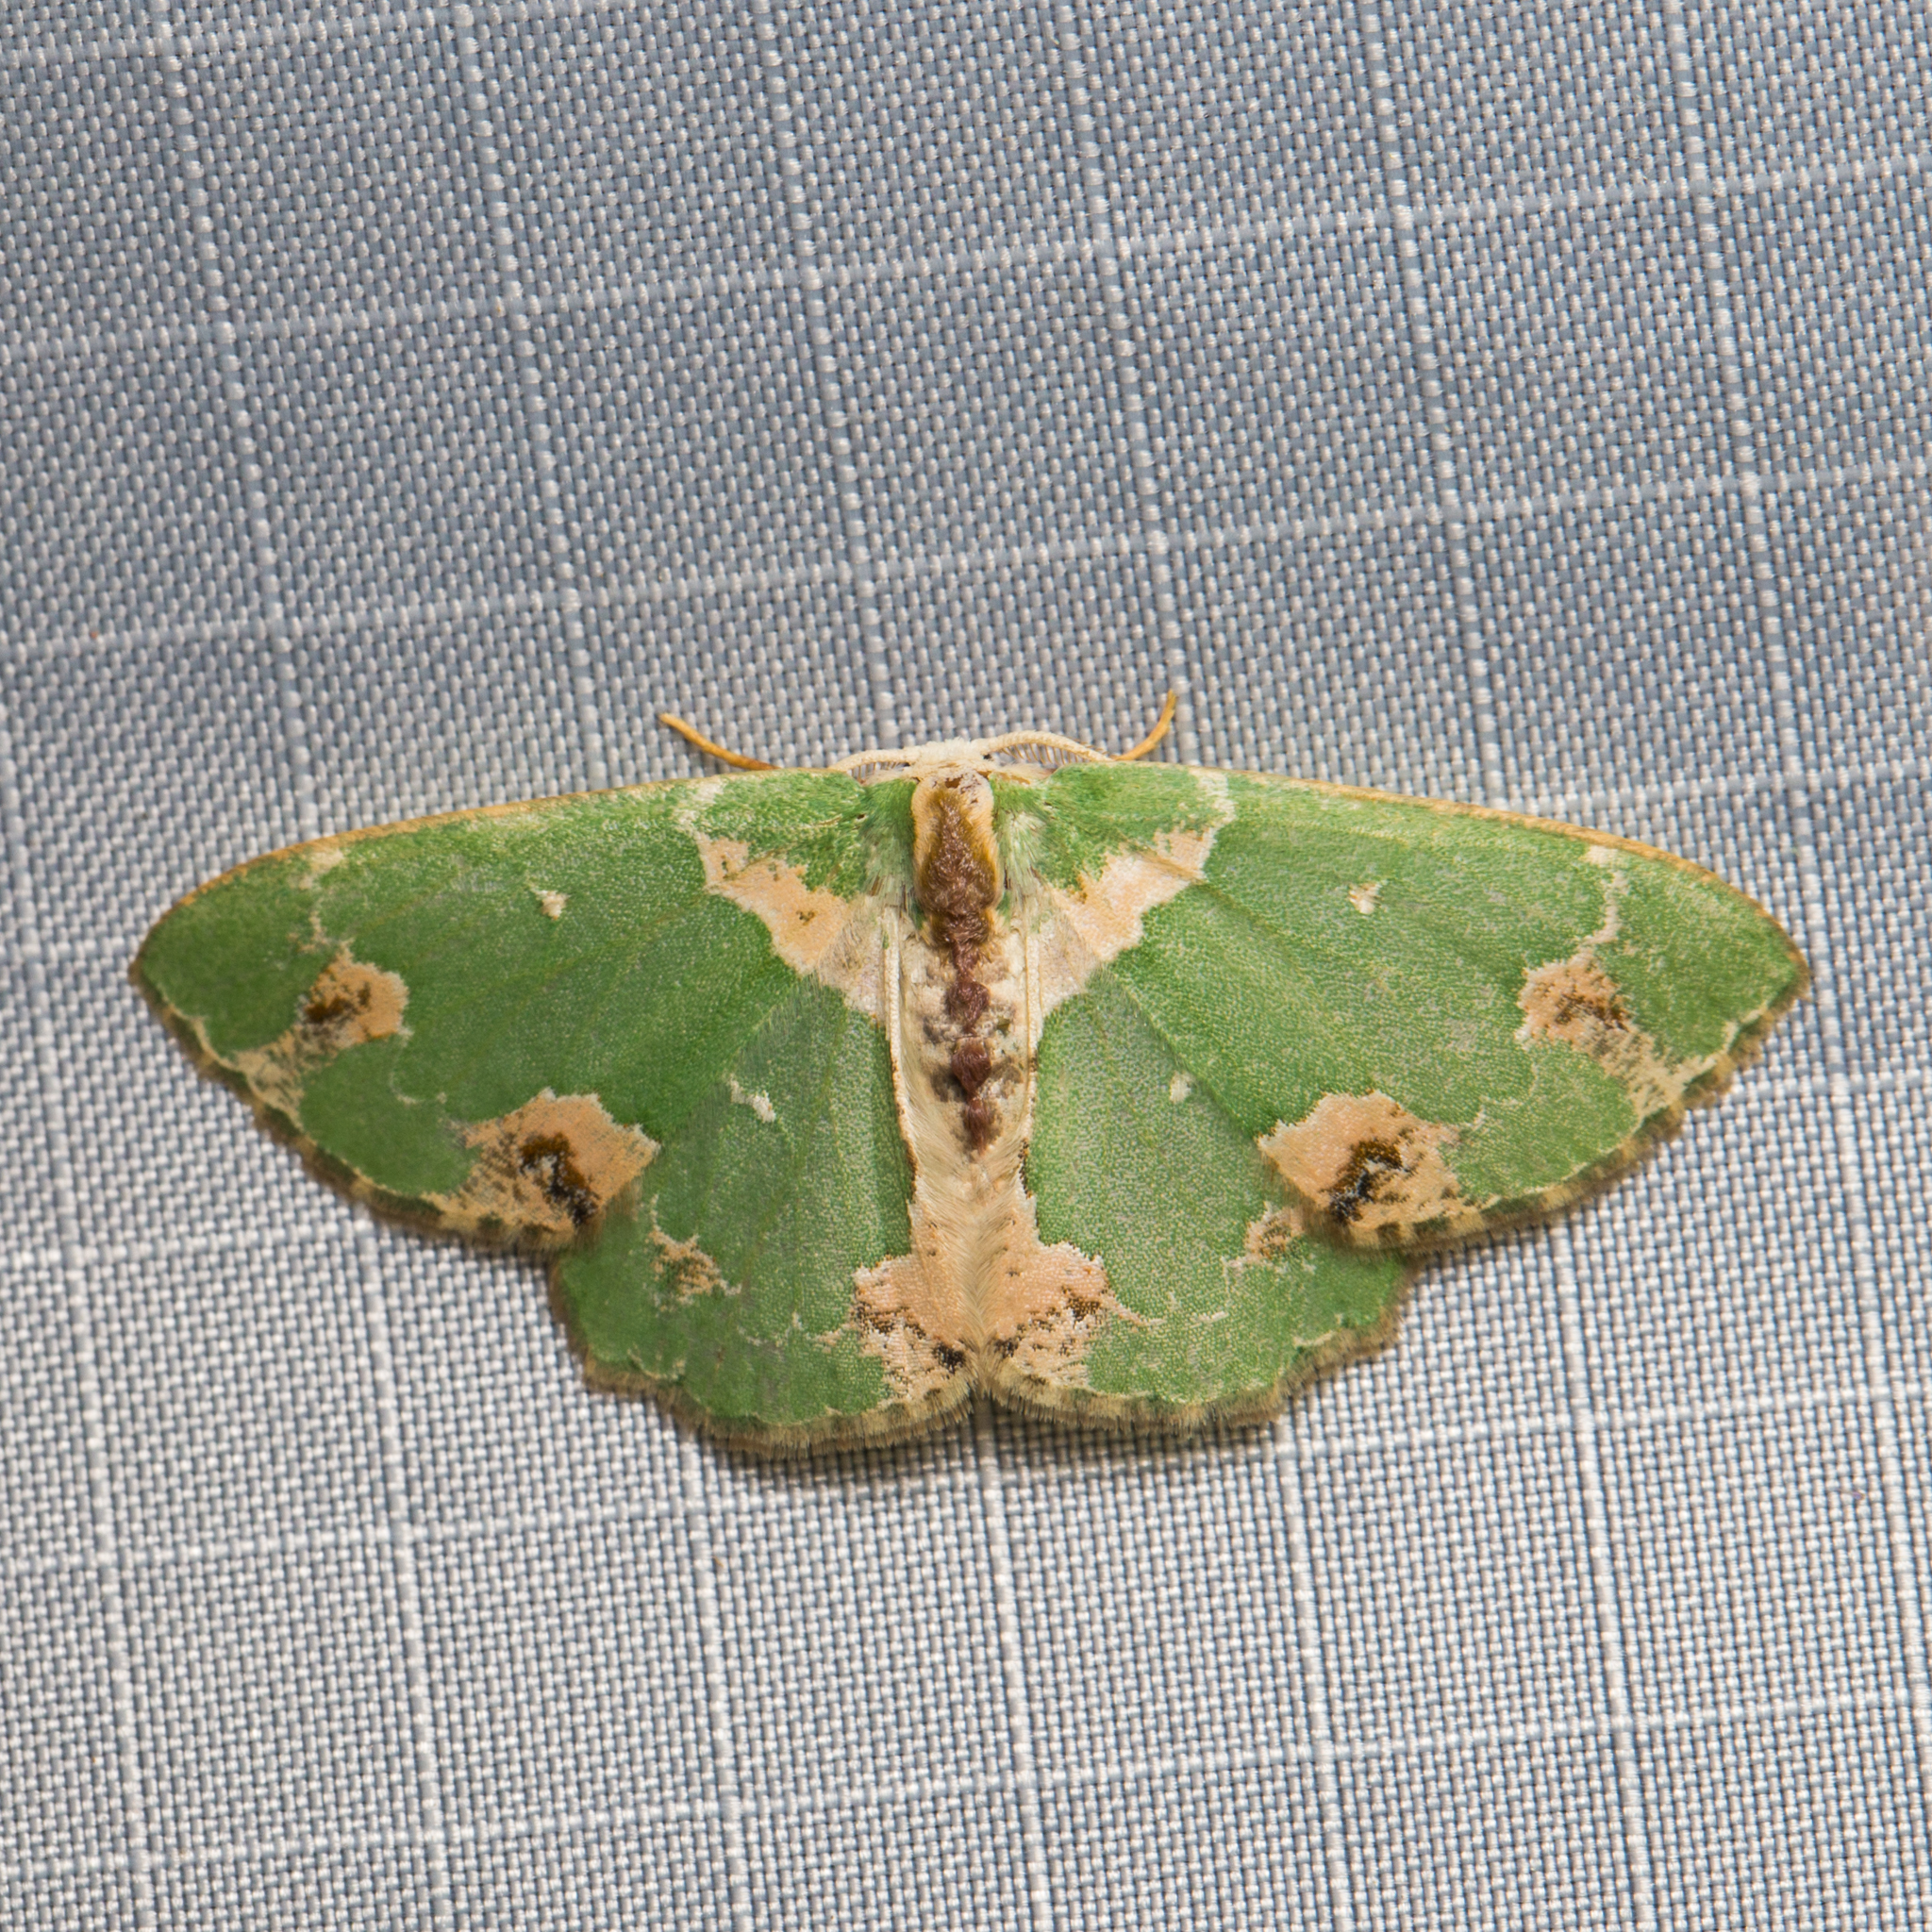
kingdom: Animalia
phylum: Arthropoda
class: Insecta
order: Lepidoptera
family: Geometridae
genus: Lophochorista
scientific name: Lophochorista lesteraria
